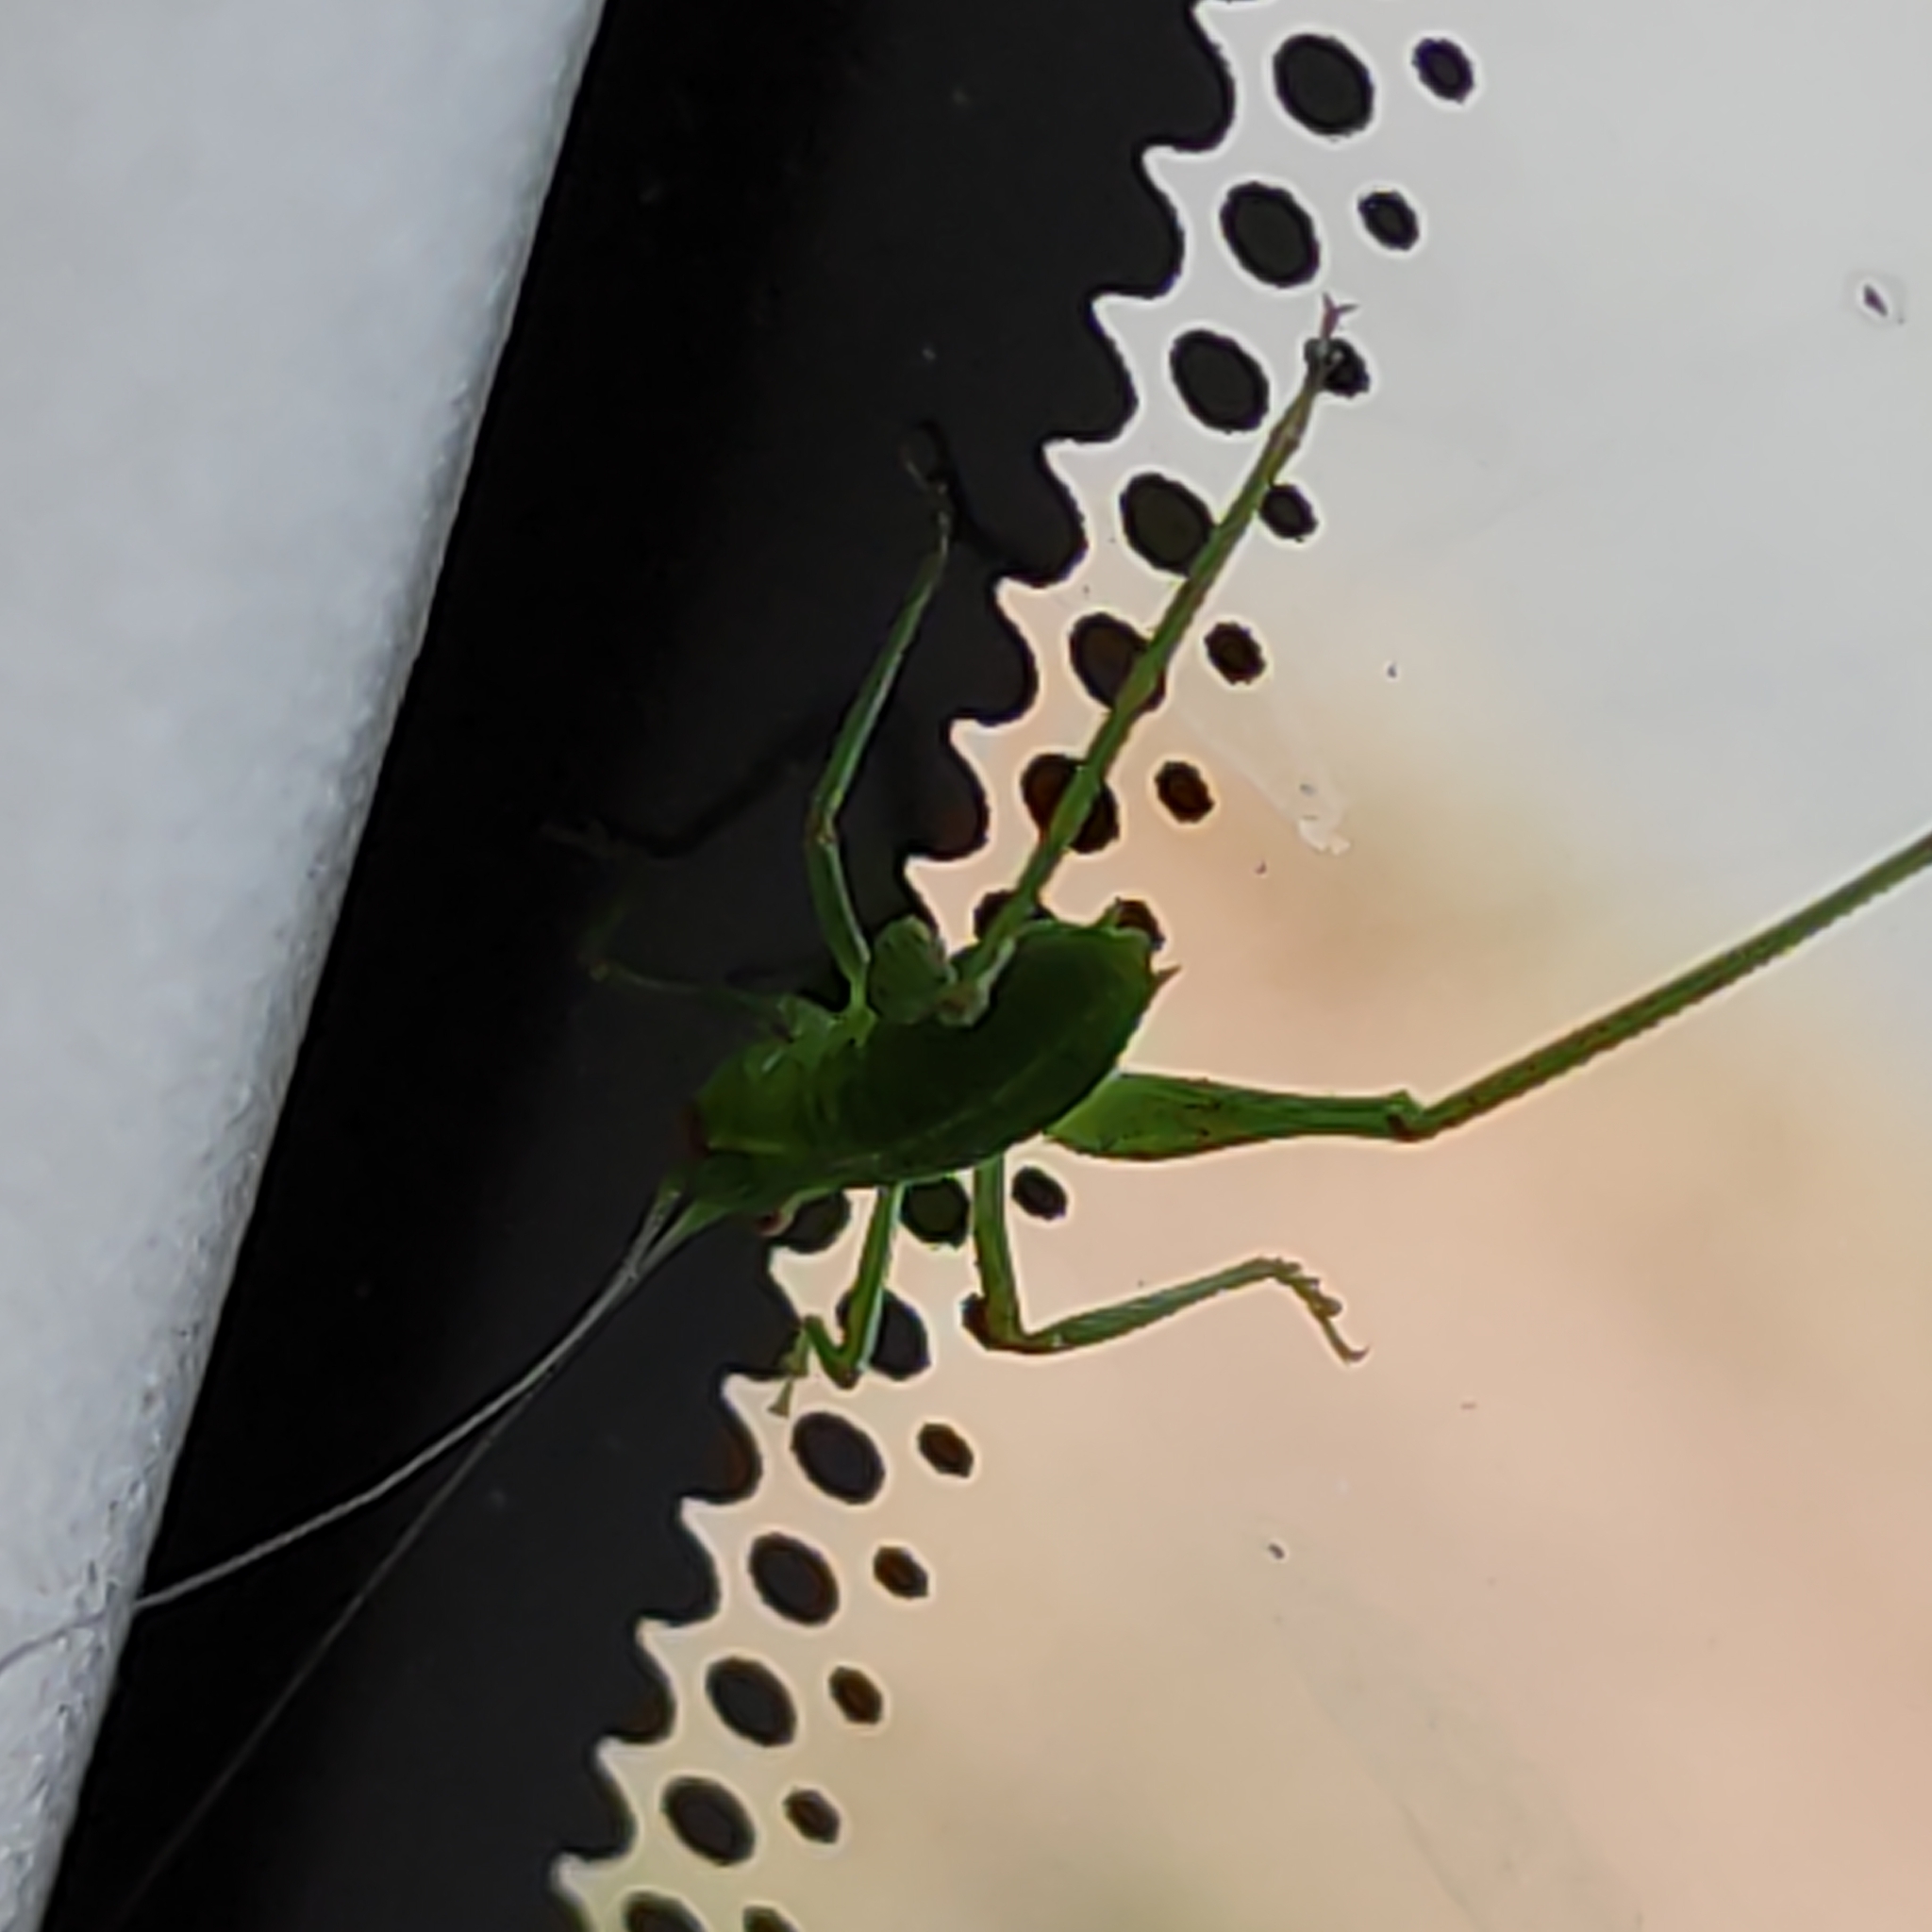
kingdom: Animalia
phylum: Arthropoda
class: Insecta
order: Orthoptera
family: Tettigoniidae
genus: Caedicia
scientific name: Caedicia simplex
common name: Common garden katydid
